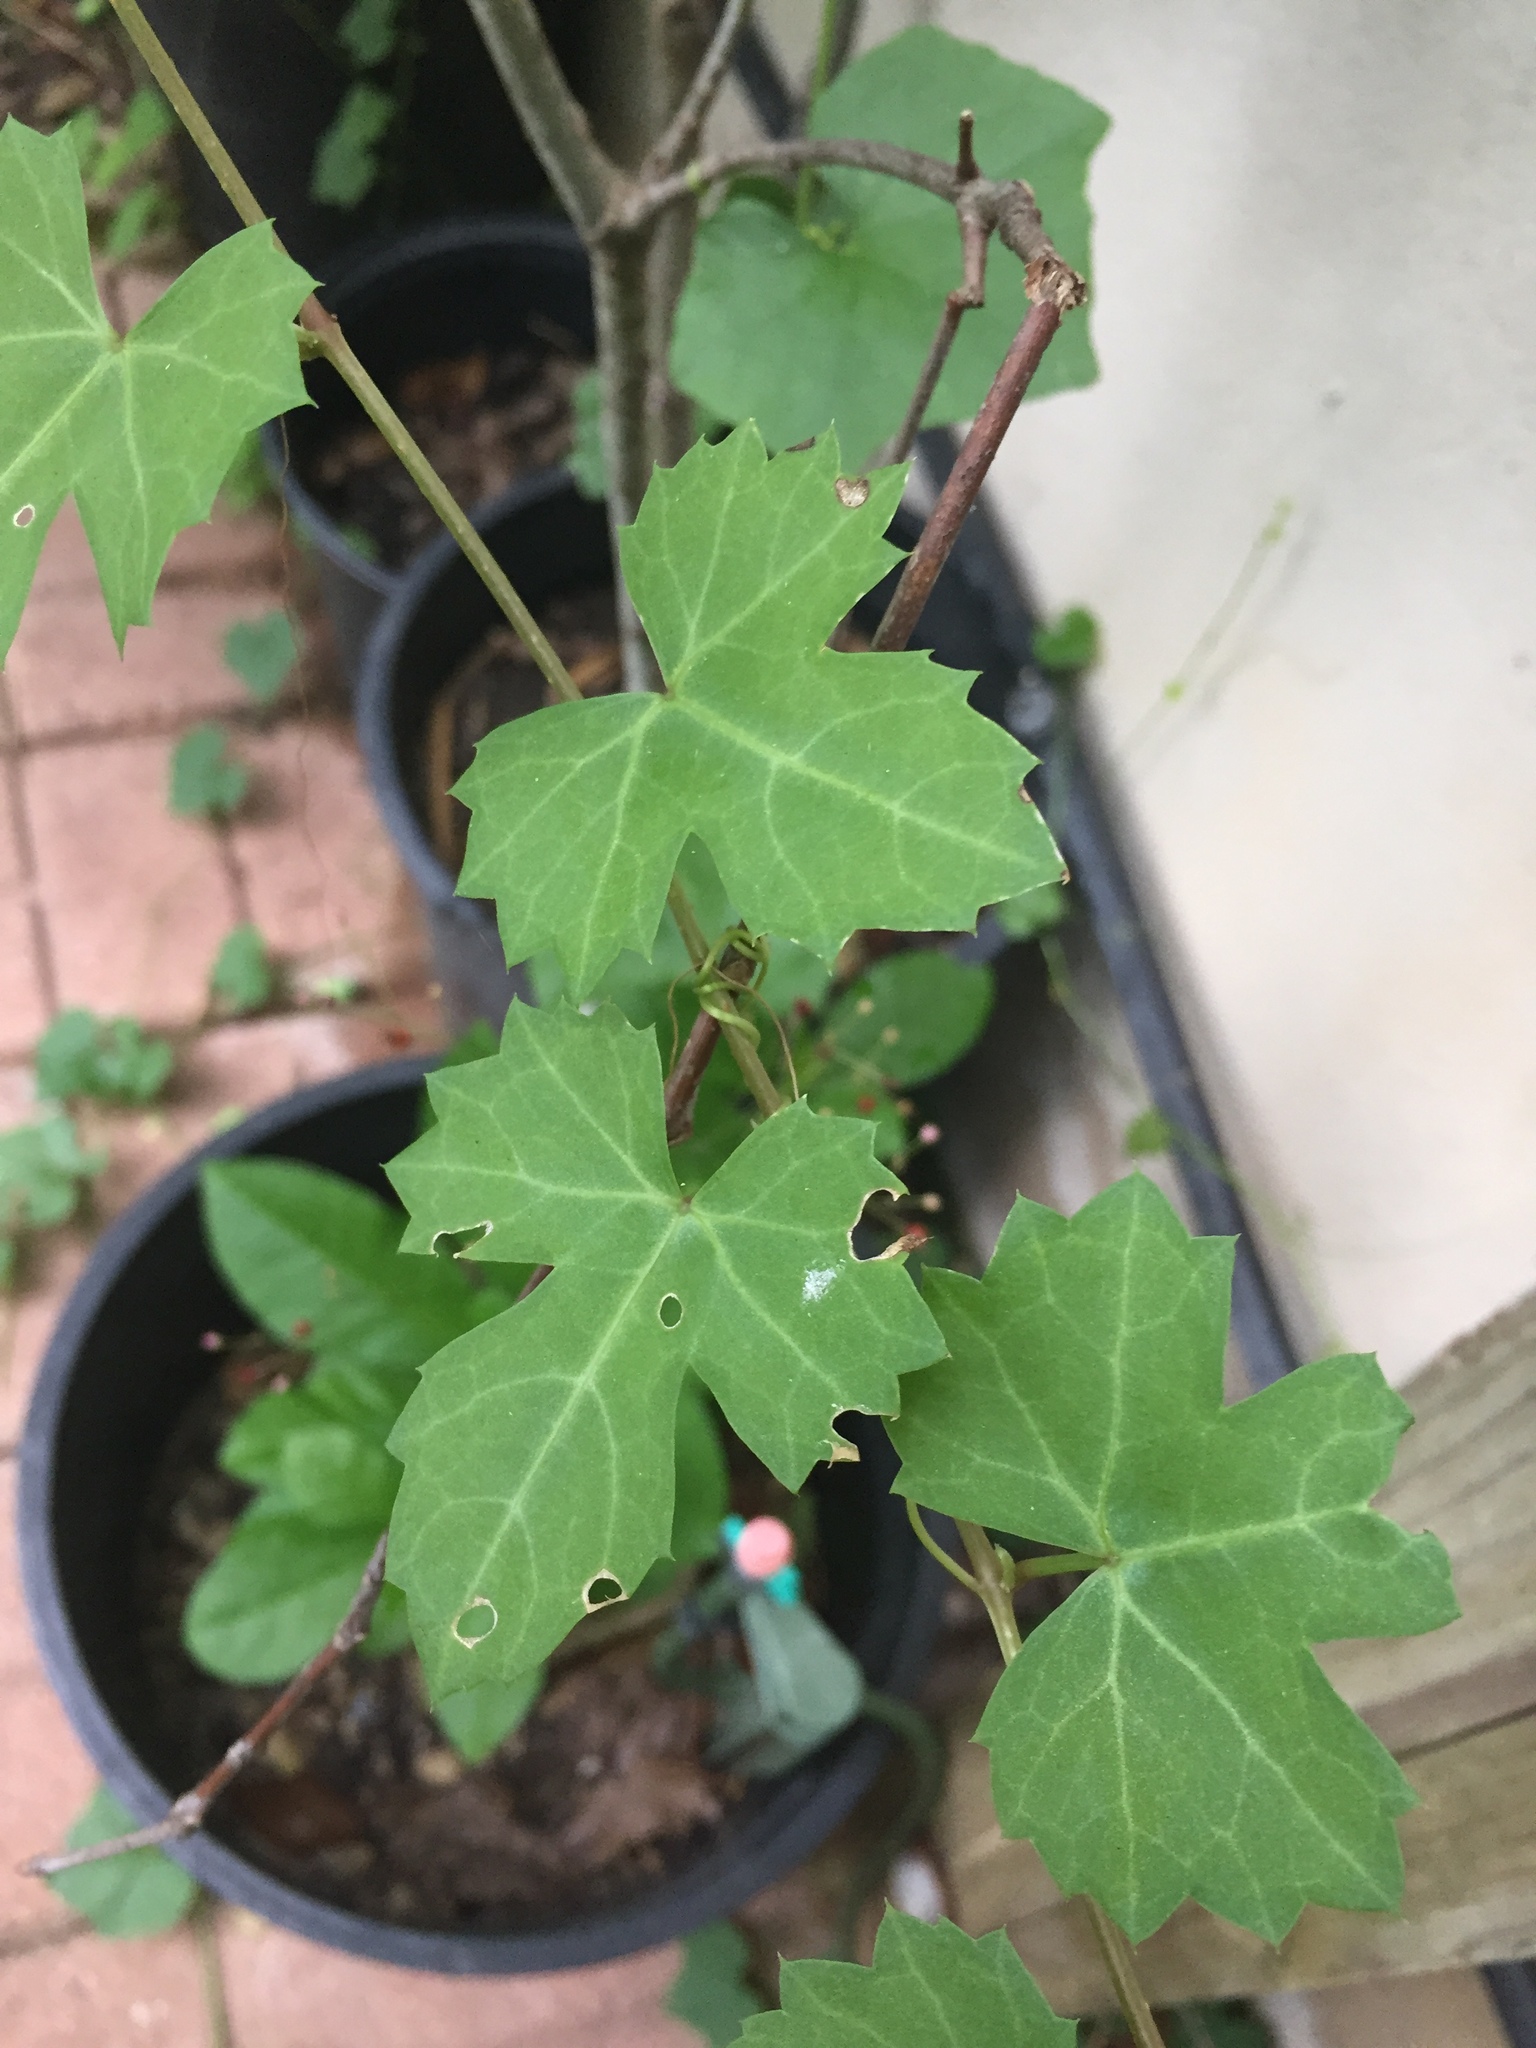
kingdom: Plantae
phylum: Tracheophyta
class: Magnoliopsida
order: Vitales
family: Vitaceae
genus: Cissus
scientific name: Cissus trifoliata
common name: Vine-sorrel
